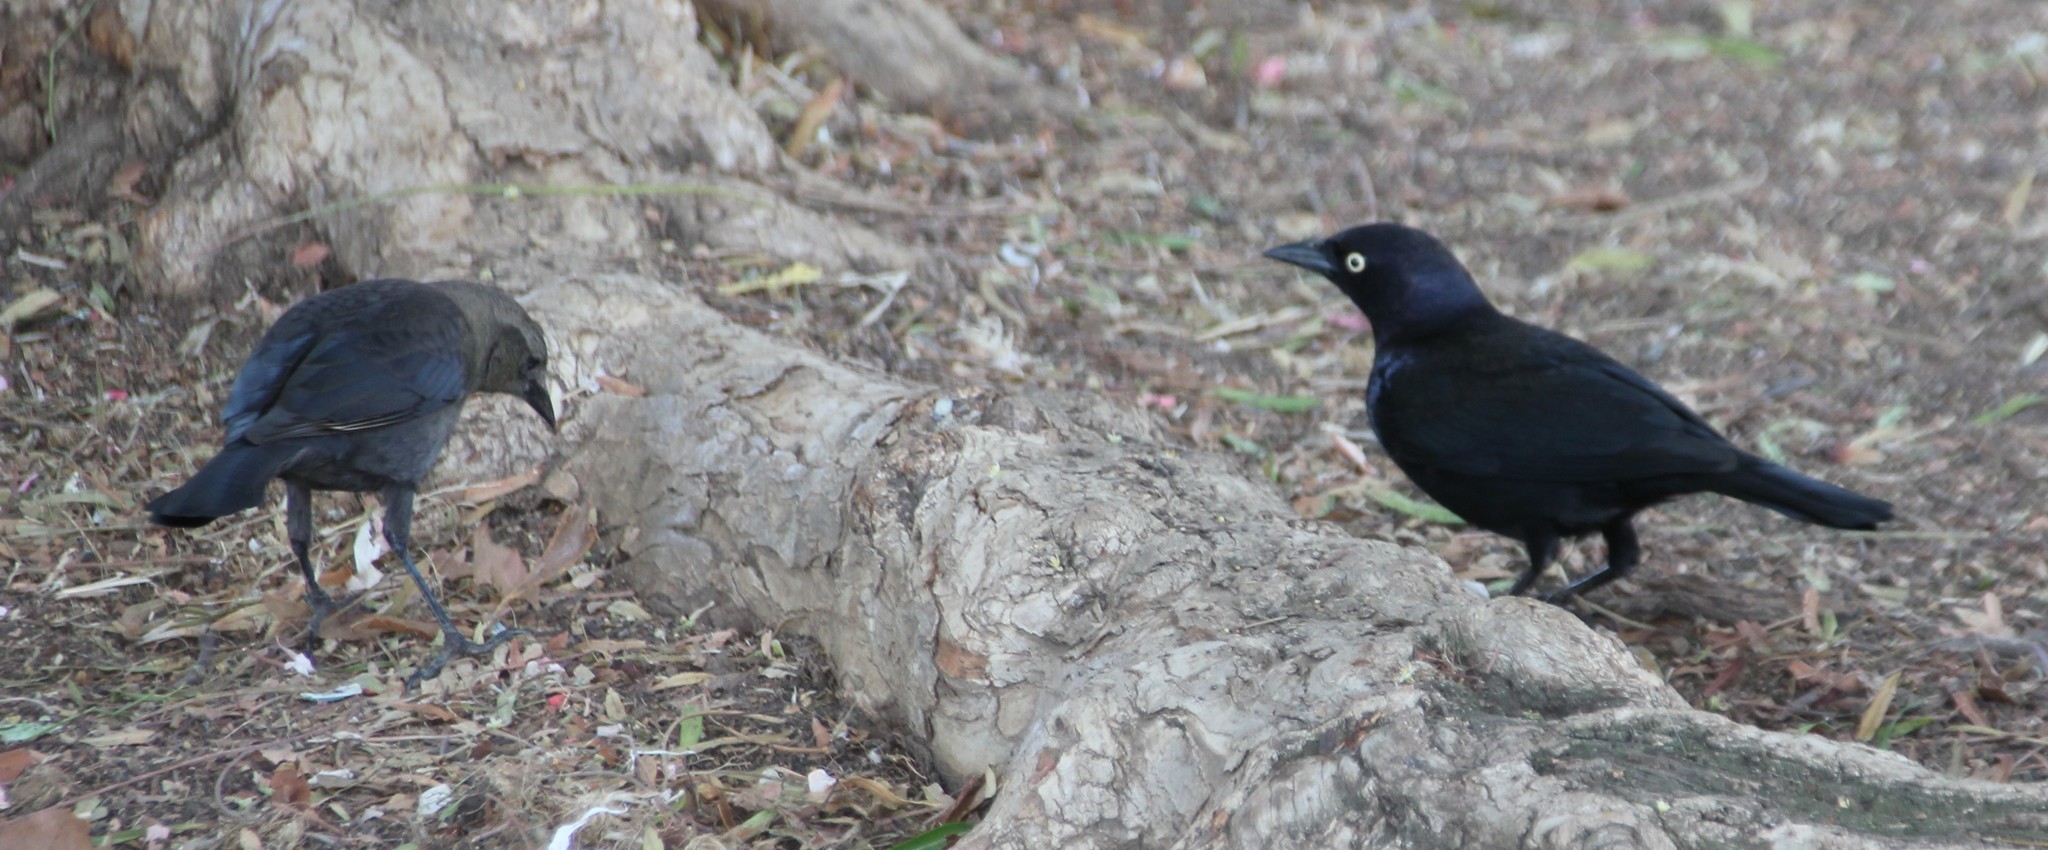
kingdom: Animalia
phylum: Chordata
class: Aves
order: Passeriformes
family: Icteridae
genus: Euphagus
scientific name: Euphagus cyanocephalus
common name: Brewer's blackbird
